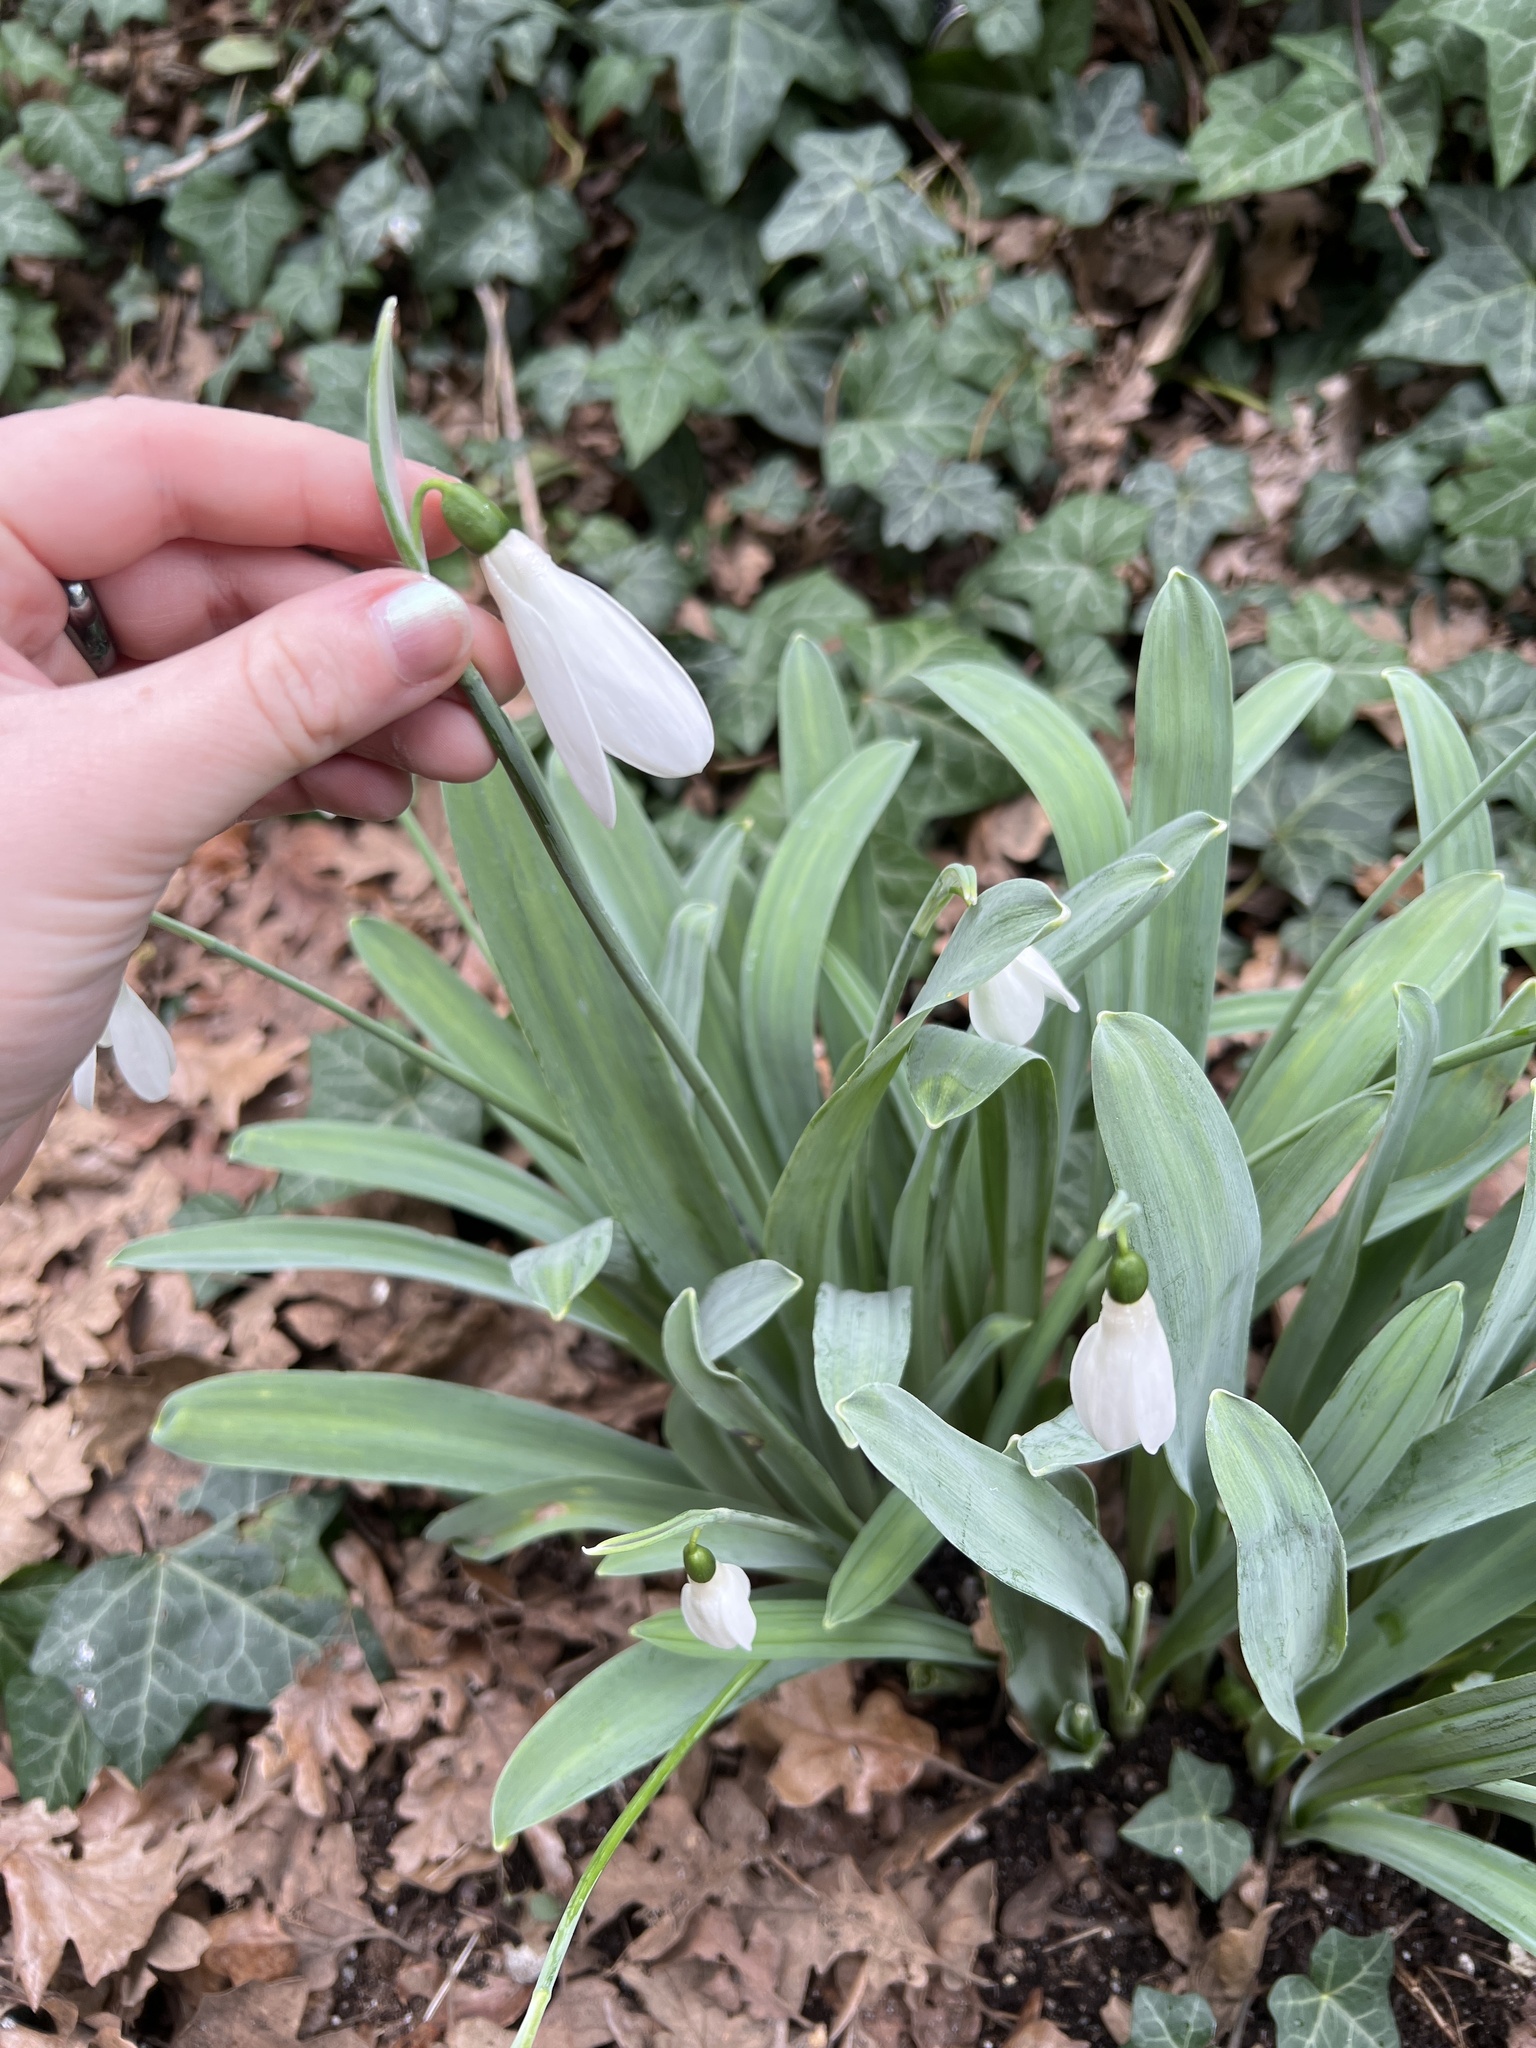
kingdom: Plantae
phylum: Tracheophyta
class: Liliopsida
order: Asparagales
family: Amaryllidaceae
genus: Galanthus
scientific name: Galanthus elwesii
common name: Greater snowdrop
